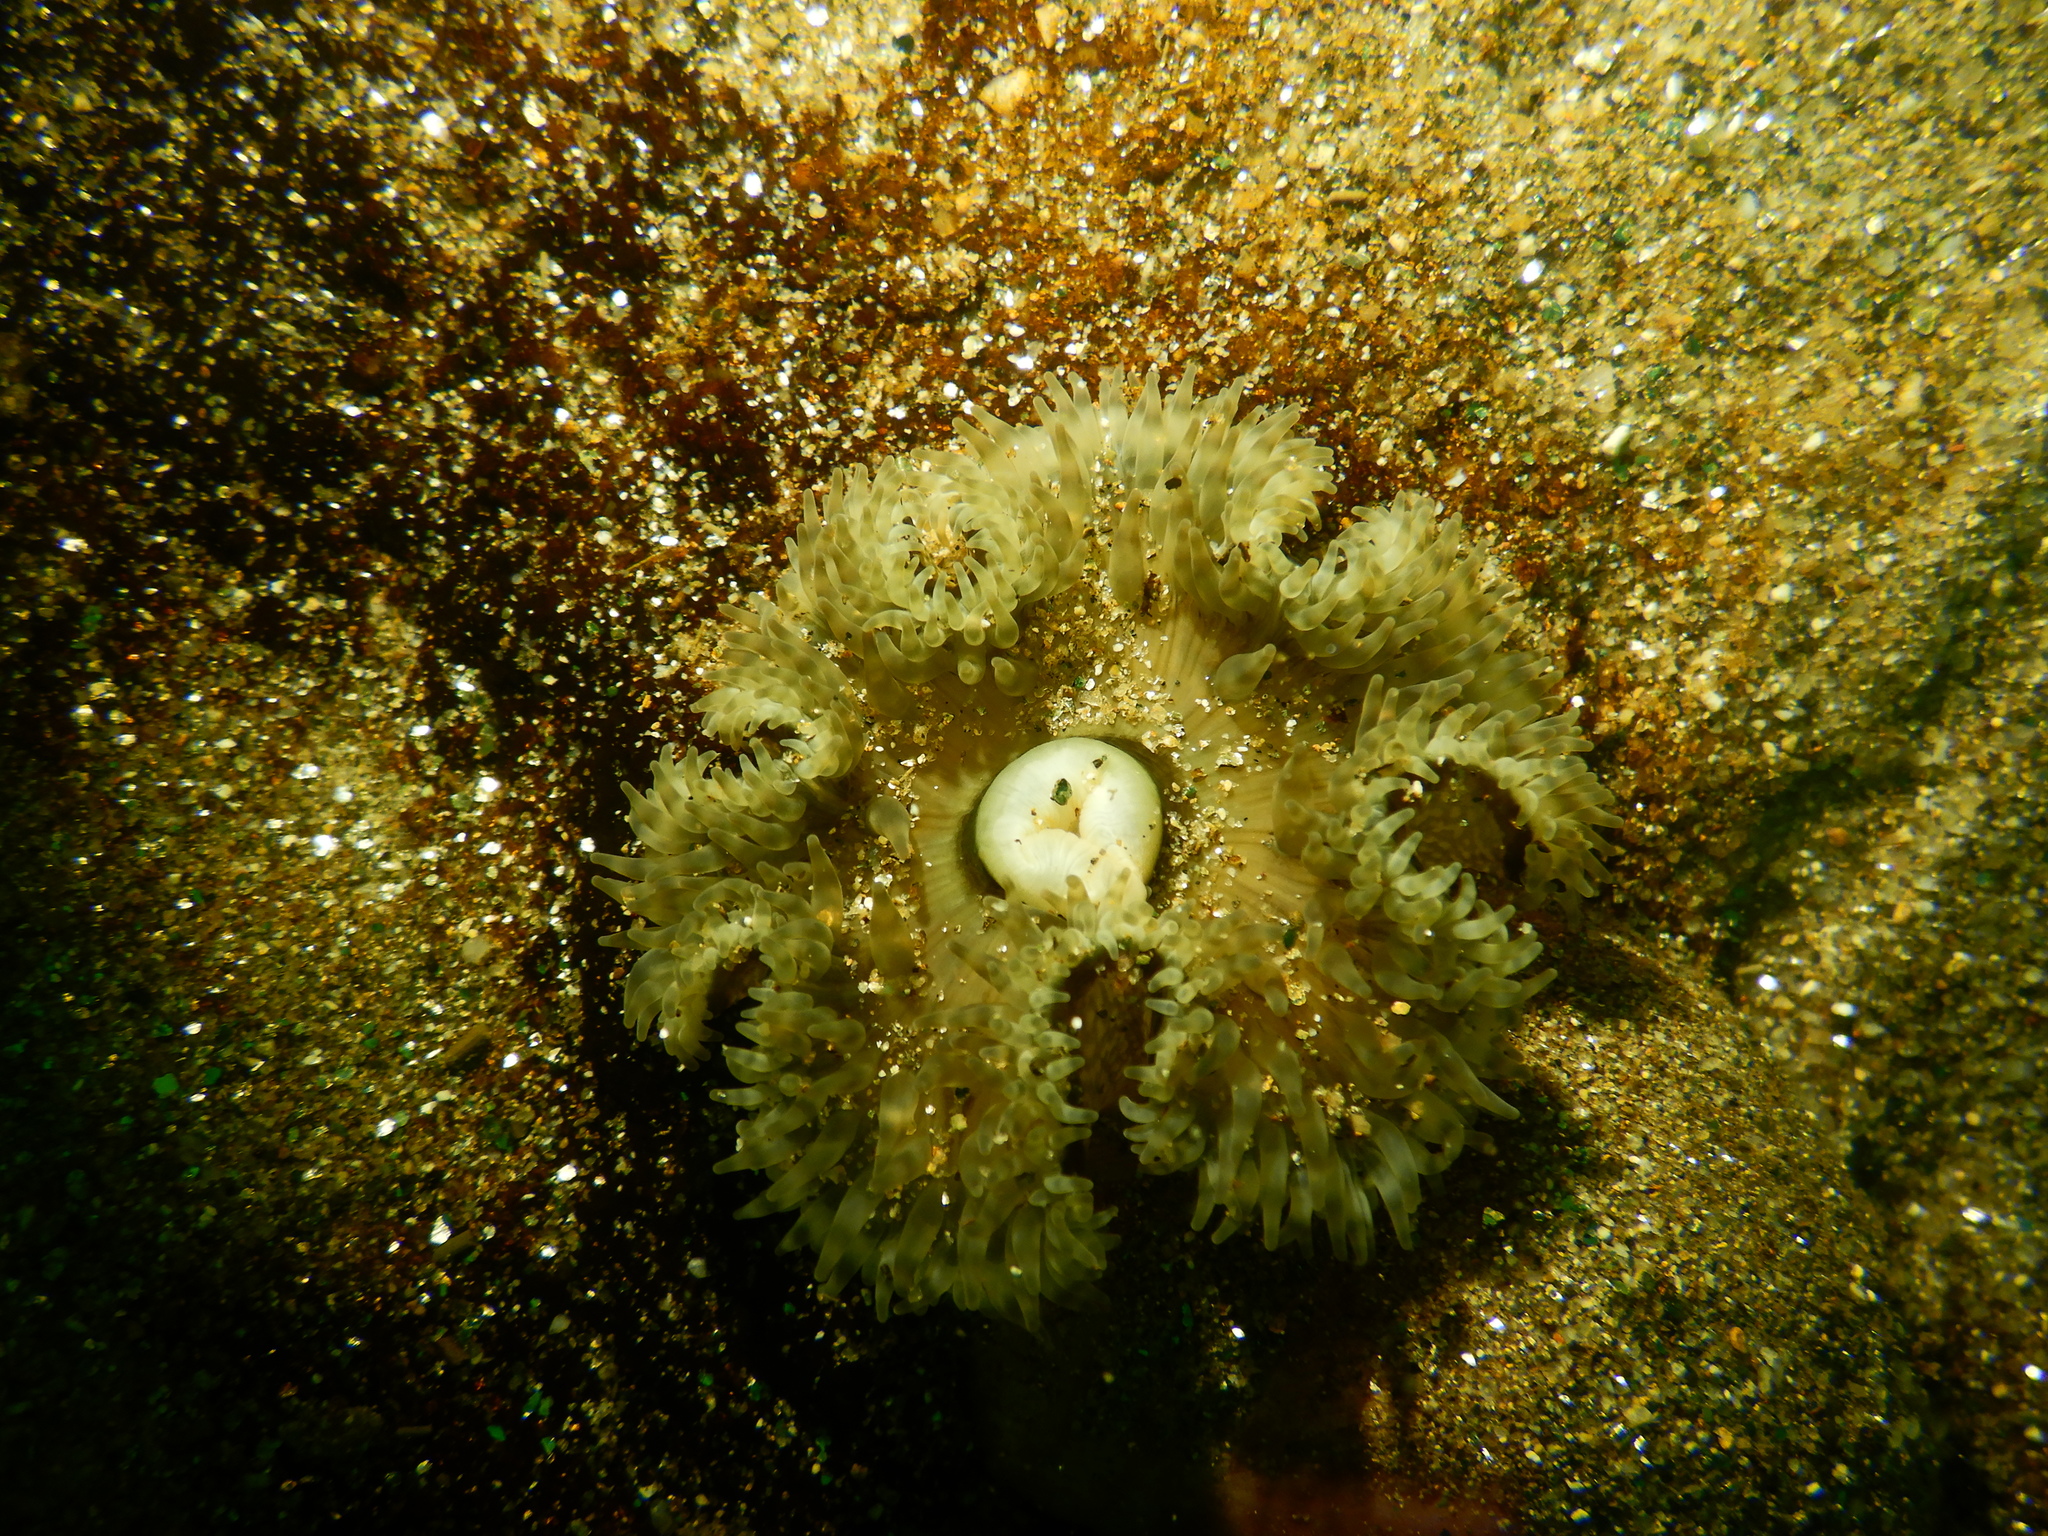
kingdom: Animalia
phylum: Cnidaria
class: Anthozoa
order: Actiniaria
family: Actinostolidae
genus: Antholoba
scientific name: Antholoba achates
